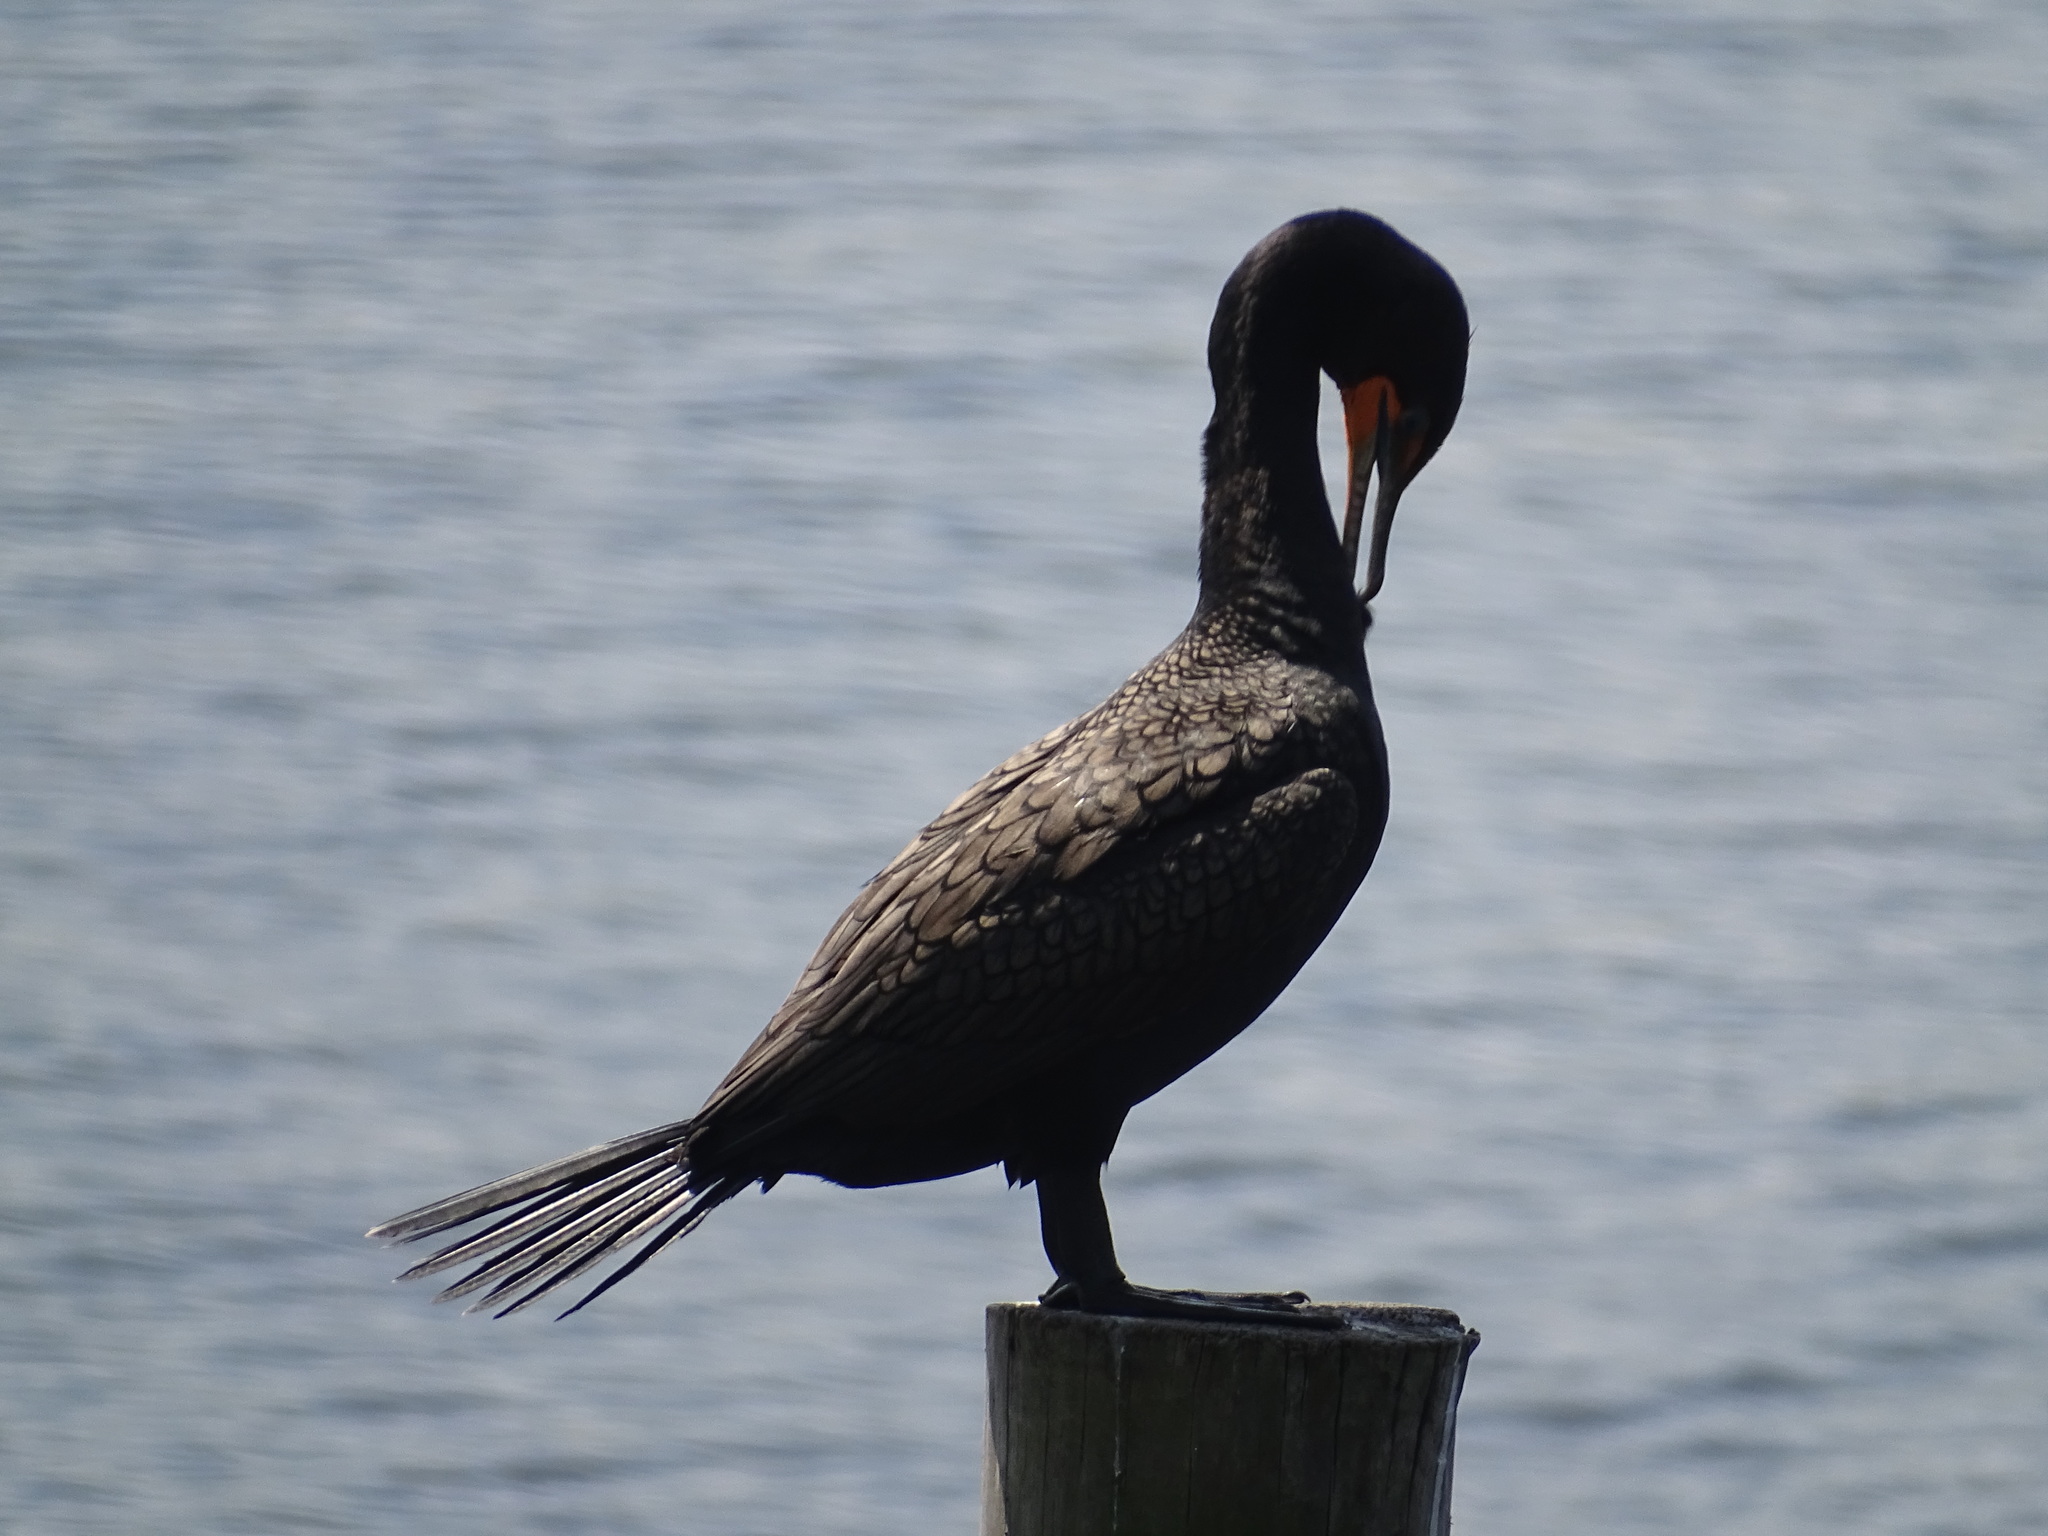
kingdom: Animalia
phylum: Chordata
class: Aves
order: Suliformes
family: Phalacrocoracidae
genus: Phalacrocorax
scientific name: Phalacrocorax auritus
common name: Double-crested cormorant
